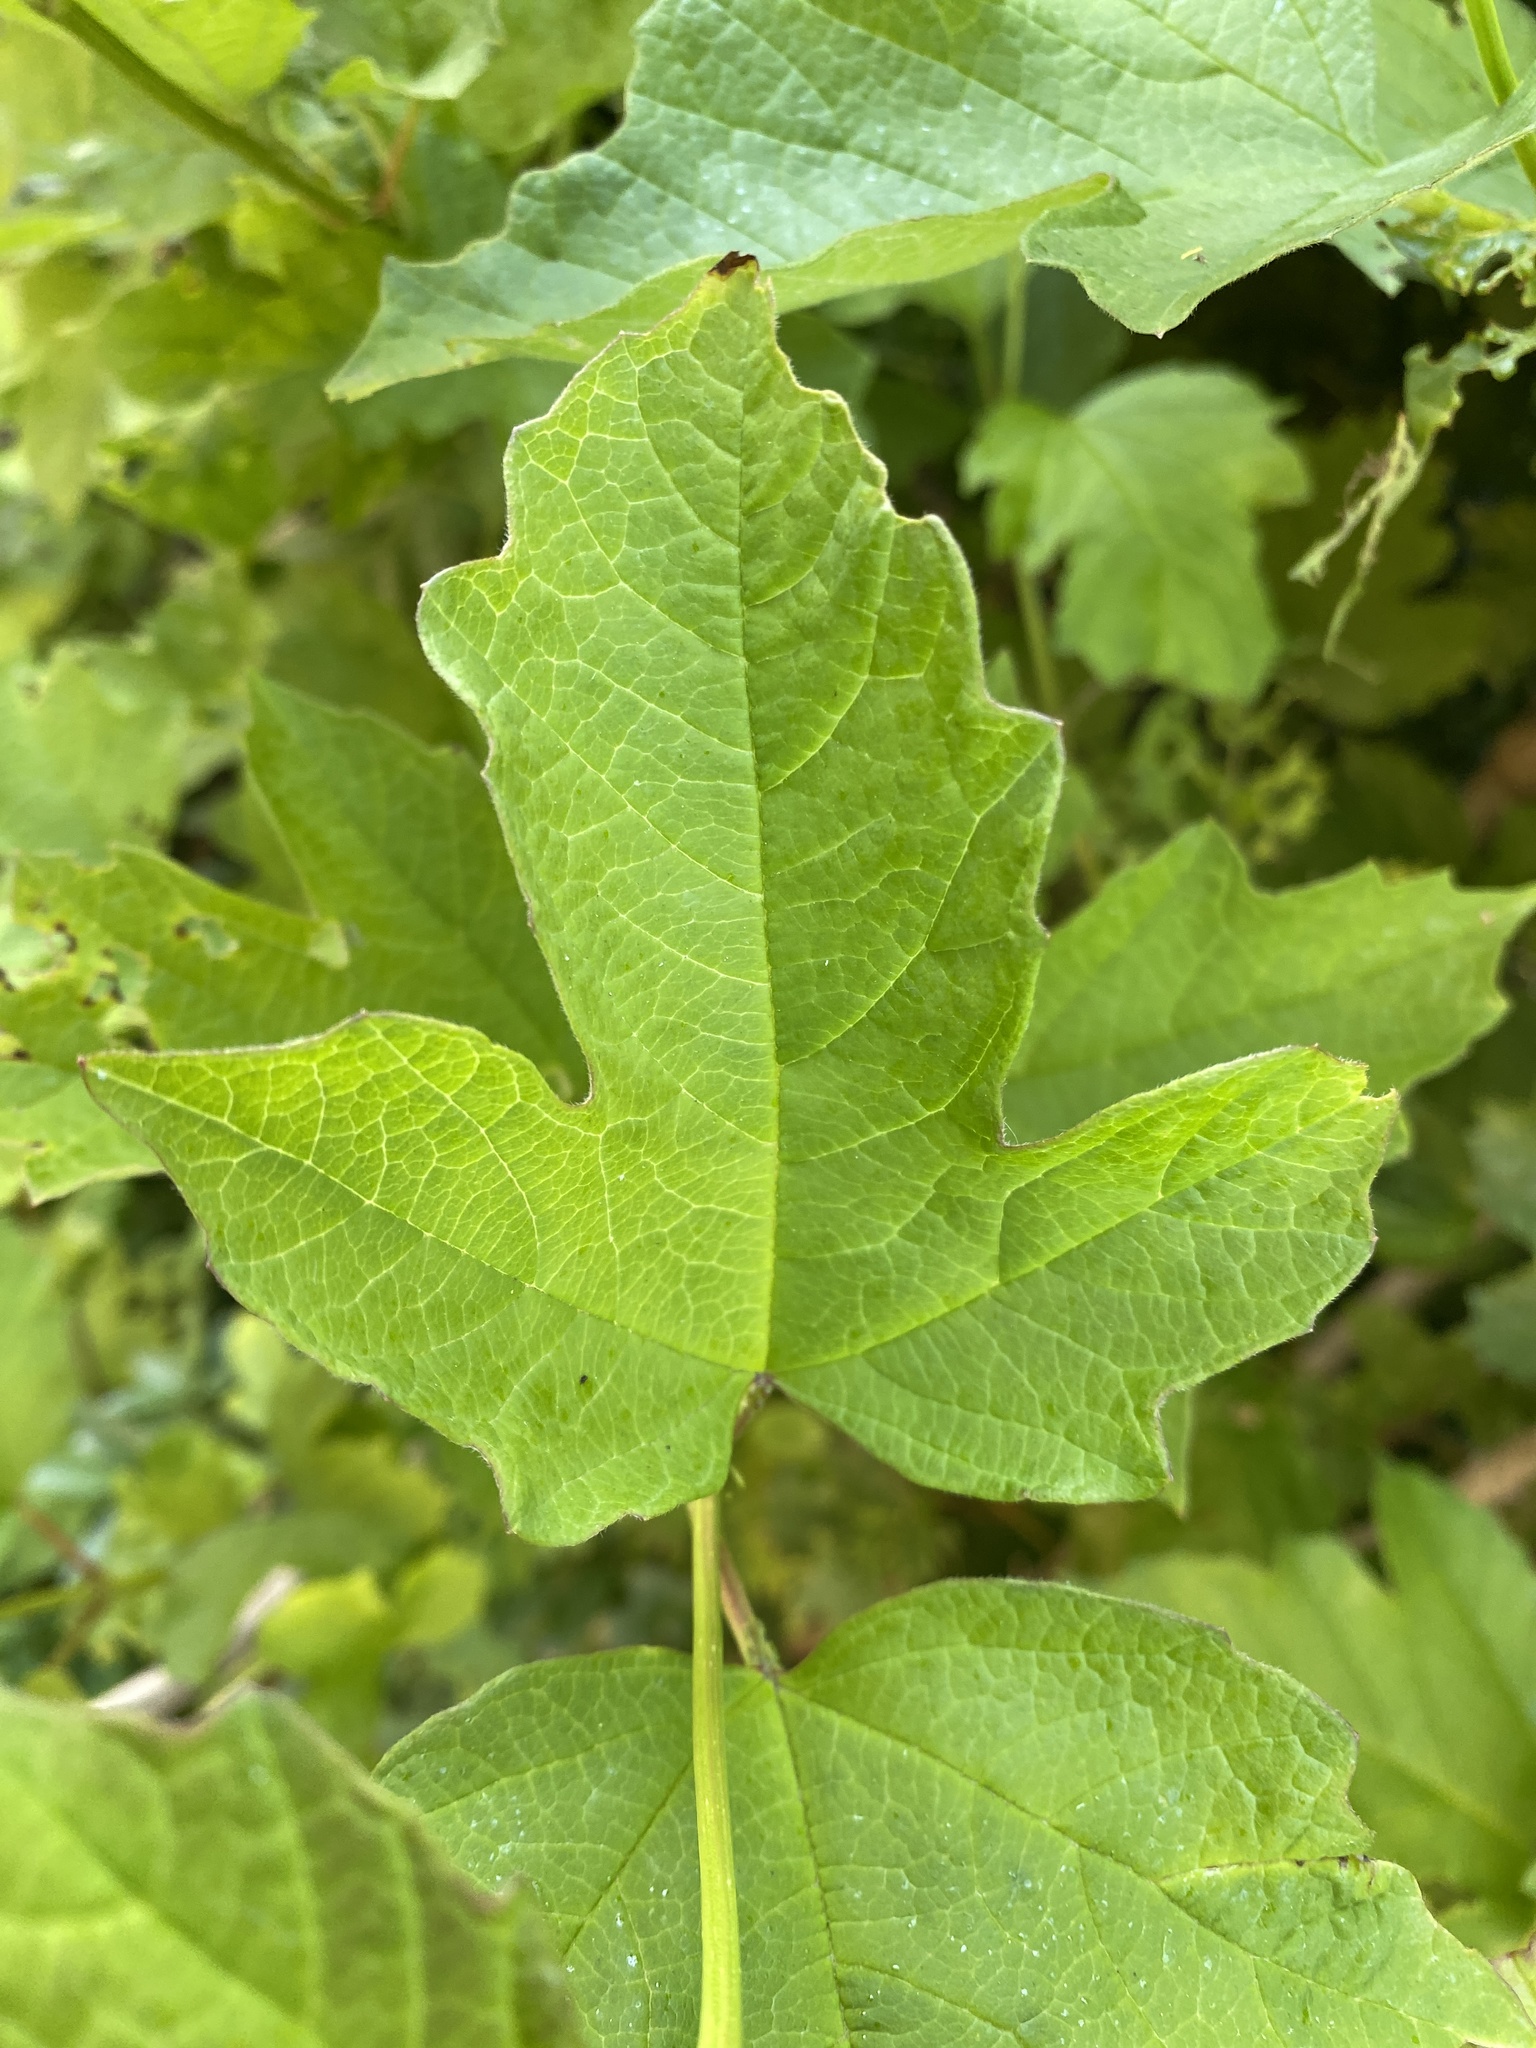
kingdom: Plantae
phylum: Tracheophyta
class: Magnoliopsida
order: Dipsacales
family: Viburnaceae
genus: Viburnum
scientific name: Viburnum opulus
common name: Guelder-rose
